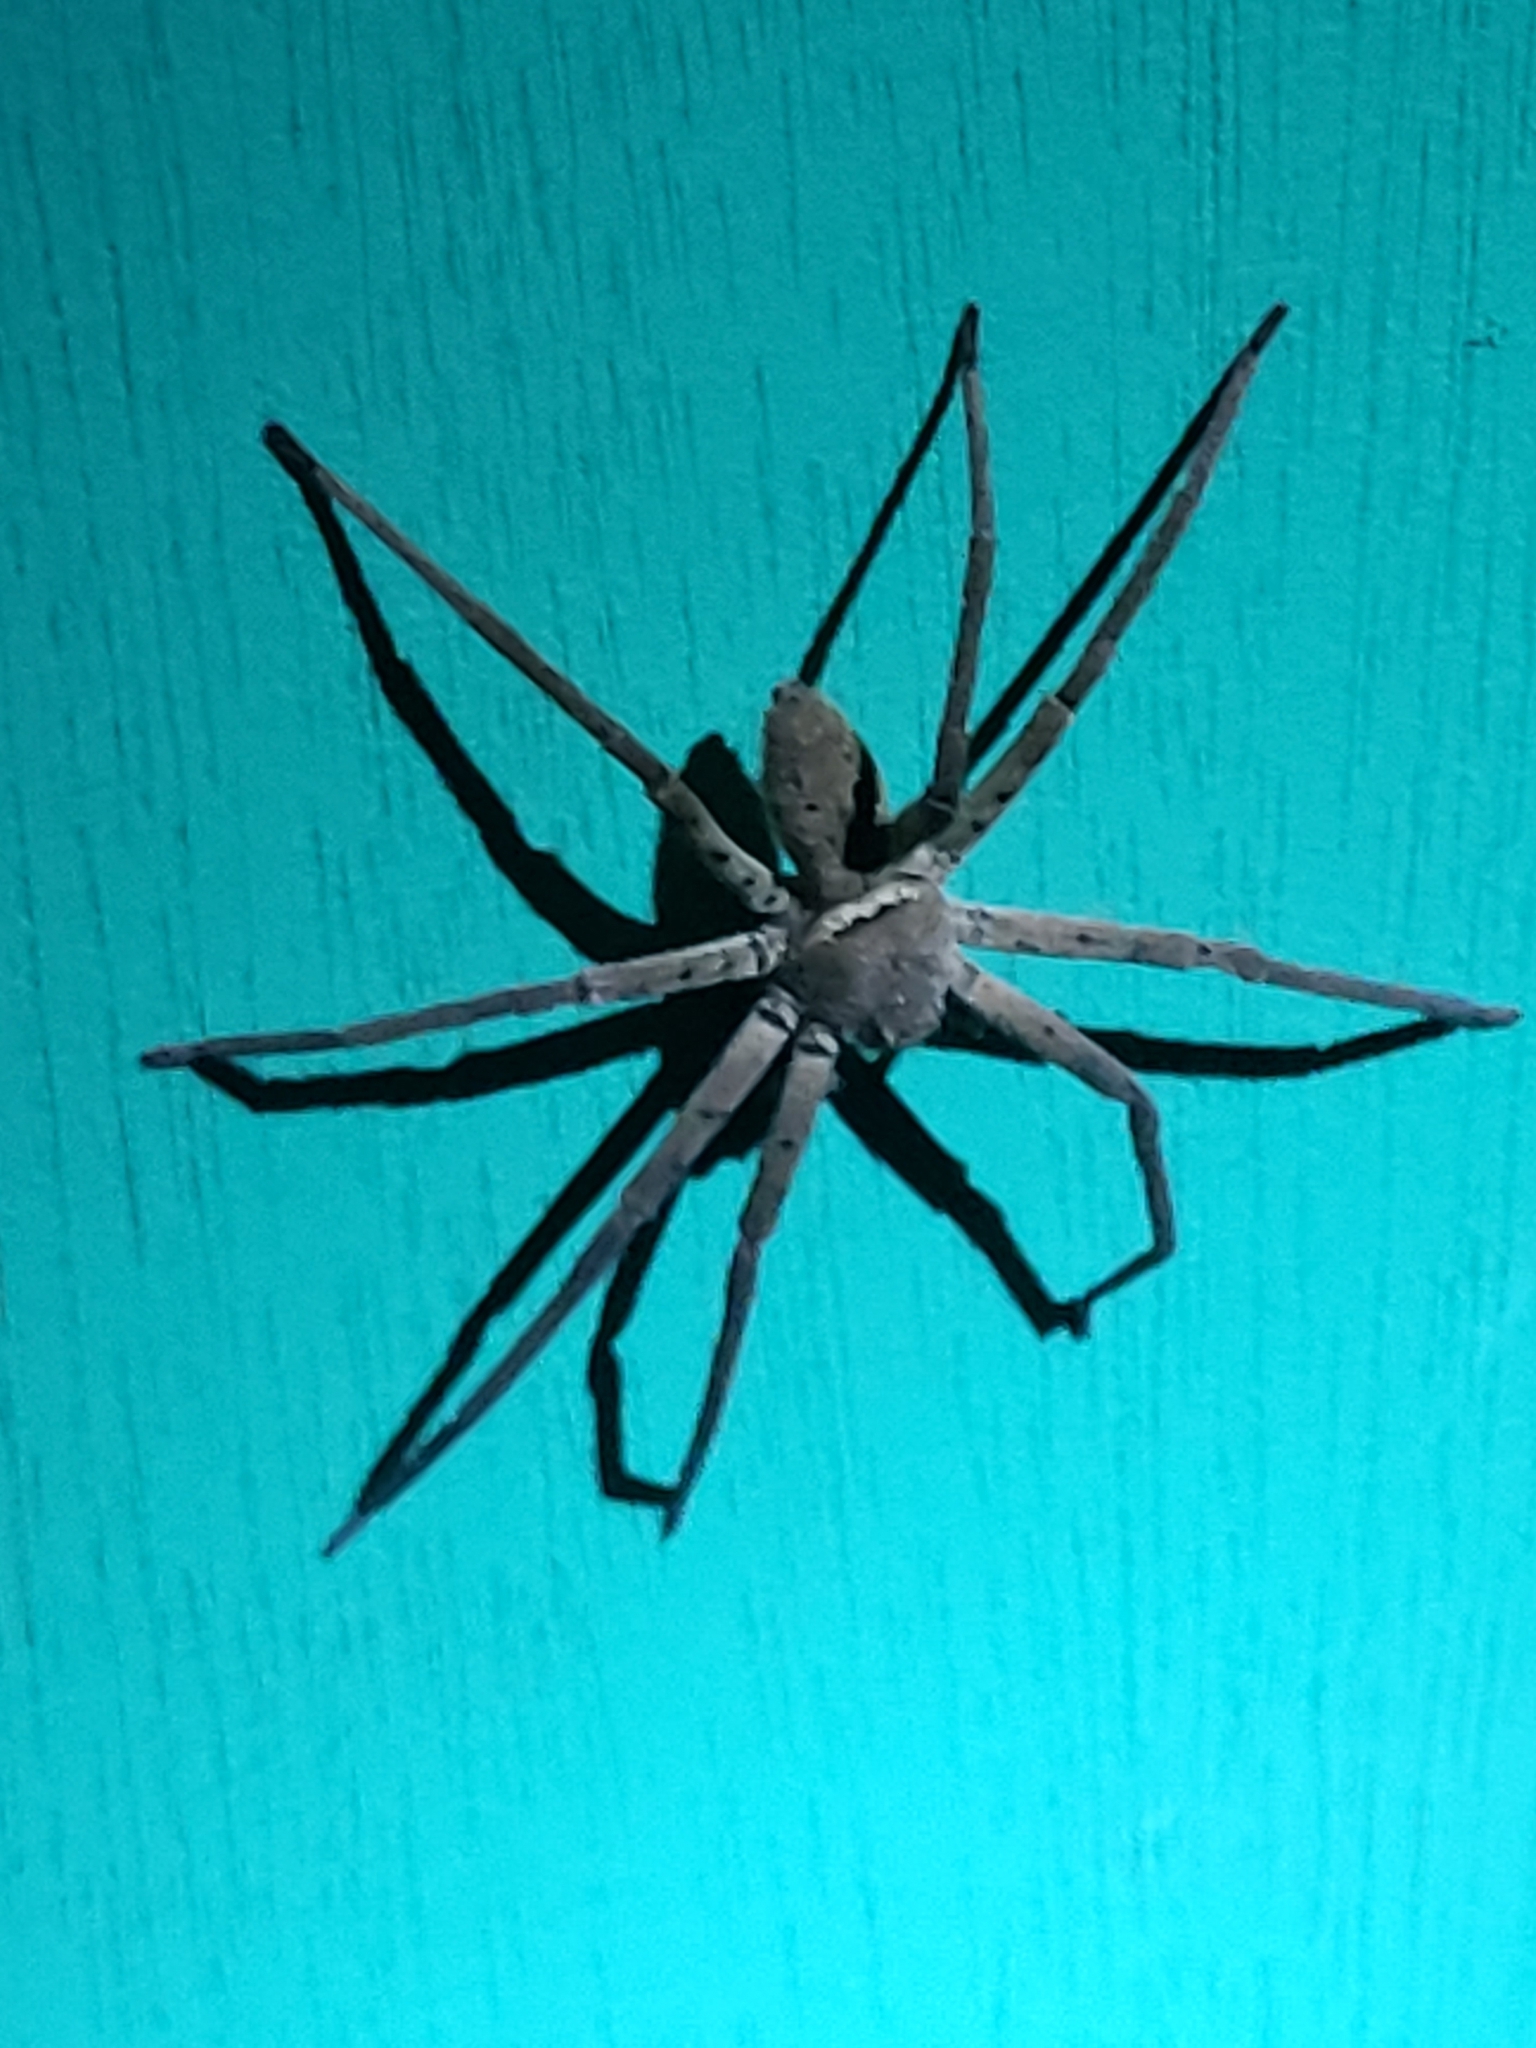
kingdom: Animalia
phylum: Arthropoda
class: Arachnida
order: Araneae
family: Sparassidae
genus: Heteropoda
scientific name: Heteropoda venatoria
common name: Huntsman spider
